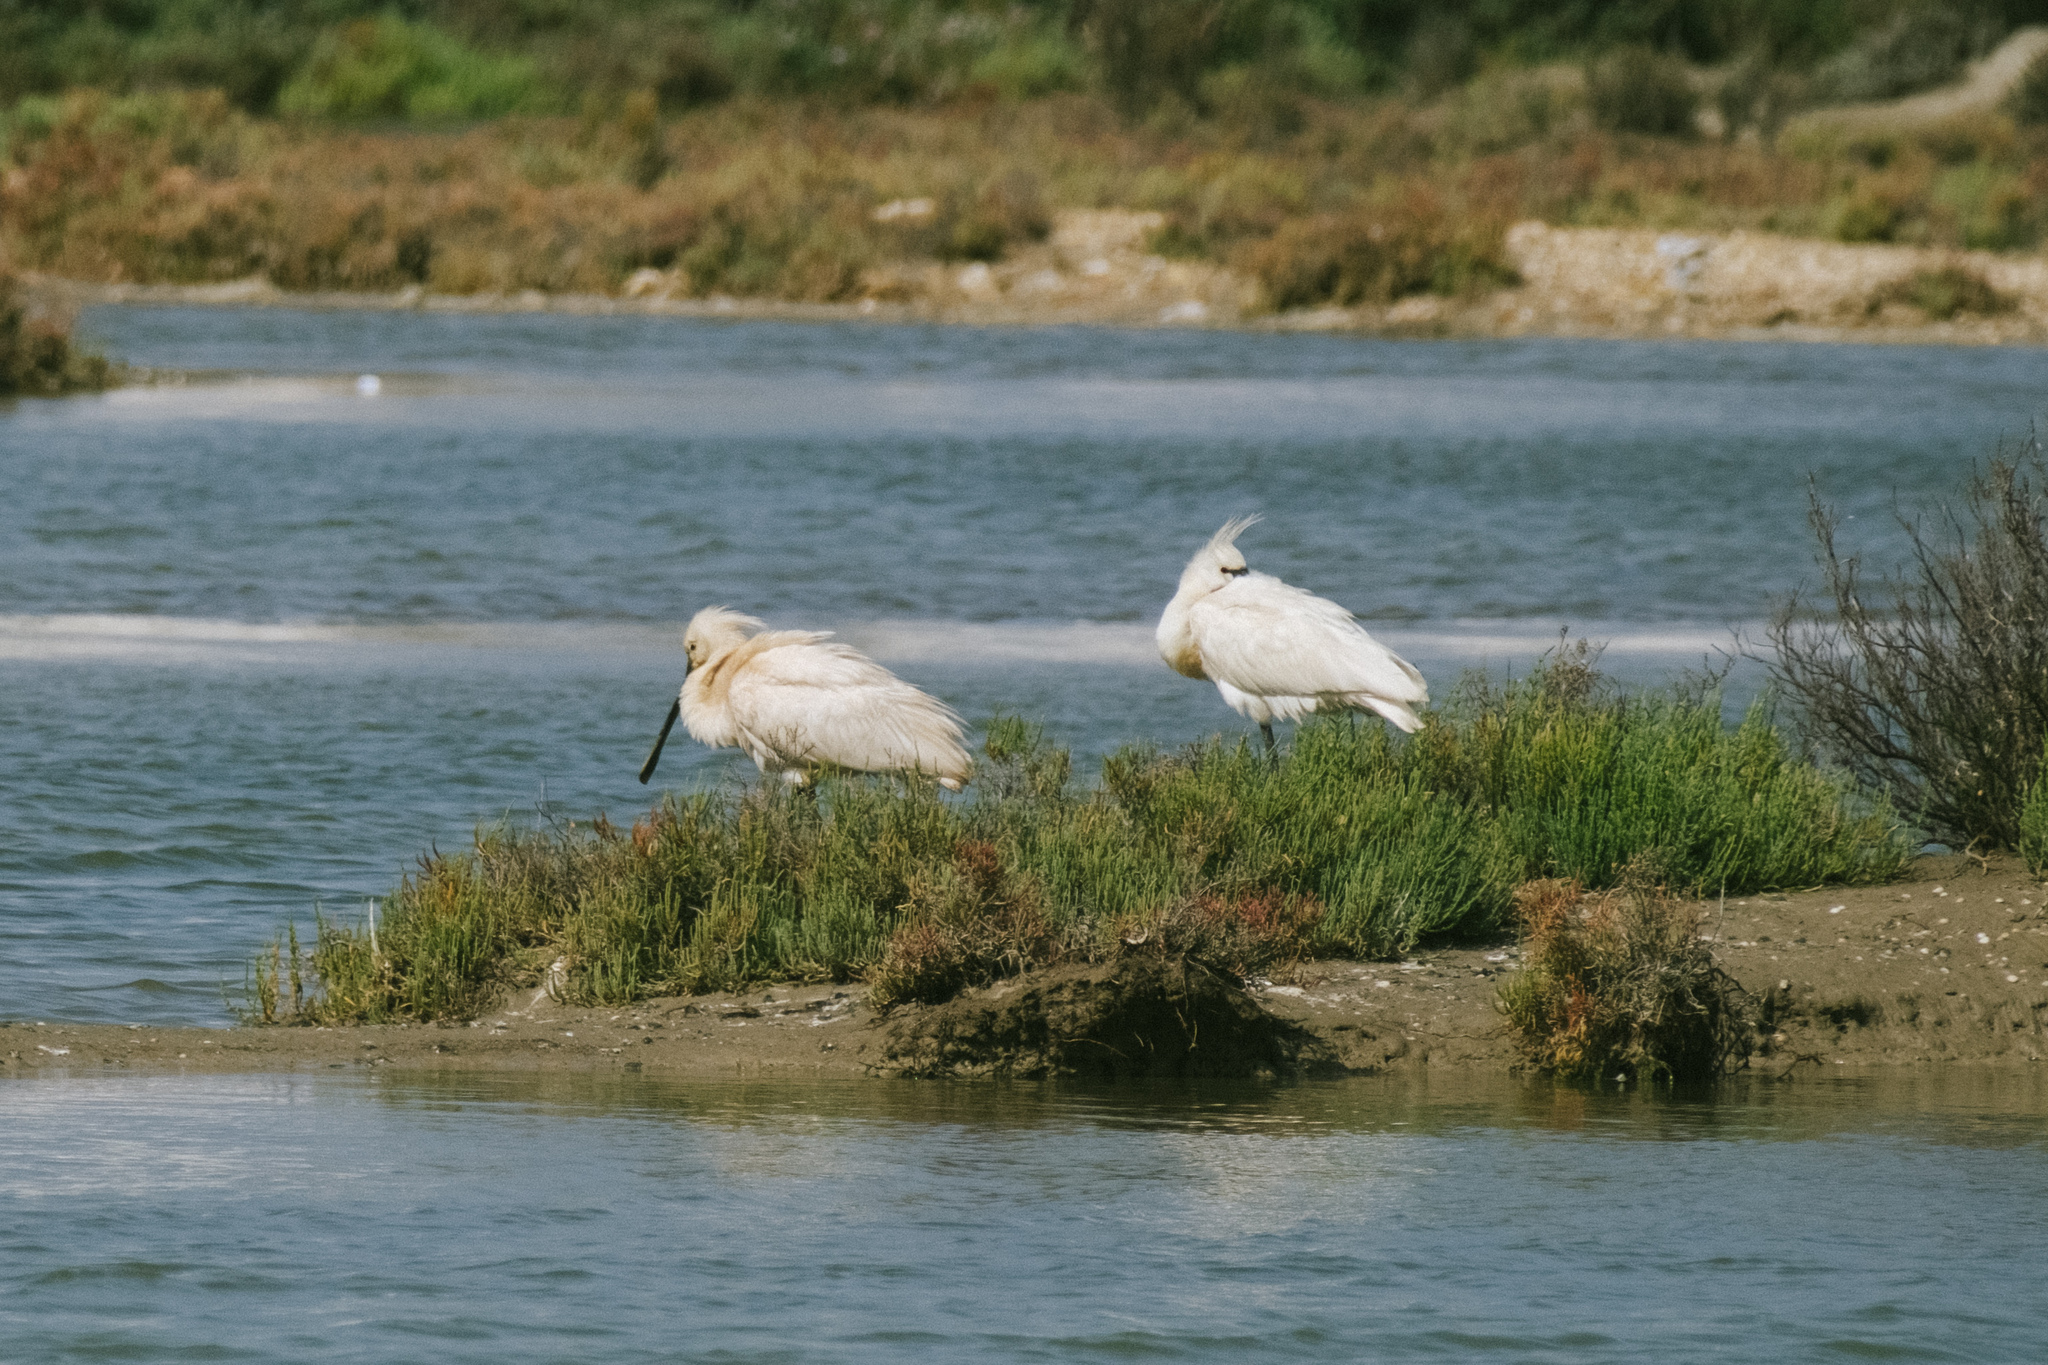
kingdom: Animalia
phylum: Chordata
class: Aves
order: Pelecaniformes
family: Threskiornithidae
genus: Platalea
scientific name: Platalea leucorodia
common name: Eurasian spoonbill
